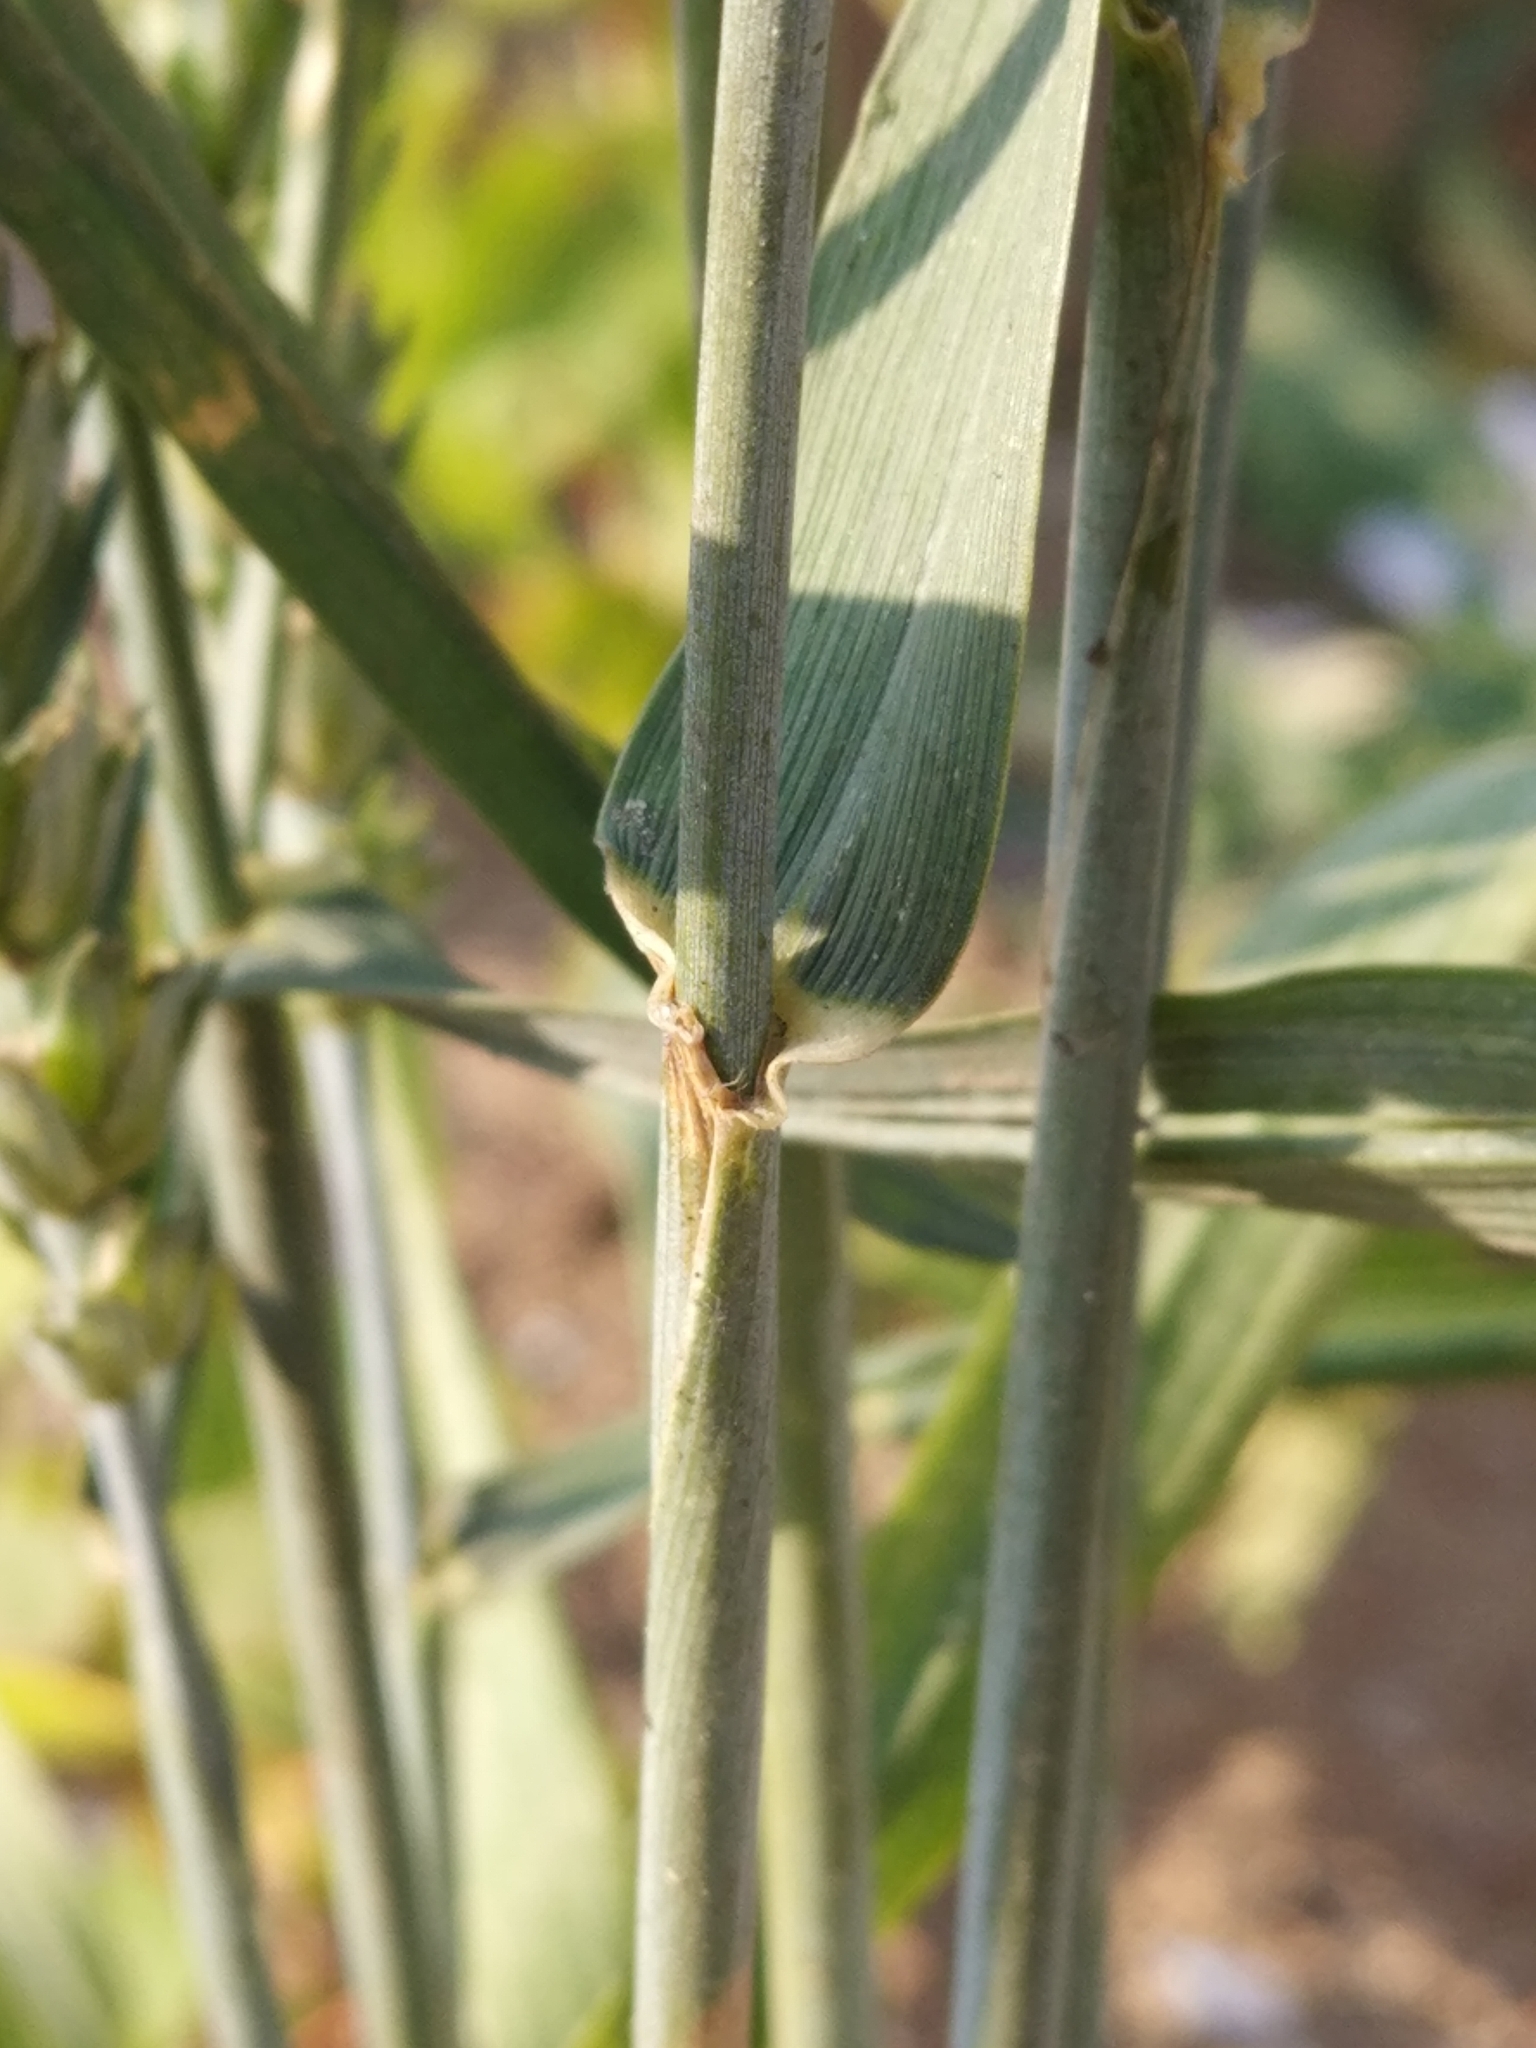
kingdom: Plantae
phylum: Tracheophyta
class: Liliopsida
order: Poales
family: Poaceae
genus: Triticum
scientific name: Triticum aestivum
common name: Common wheat
